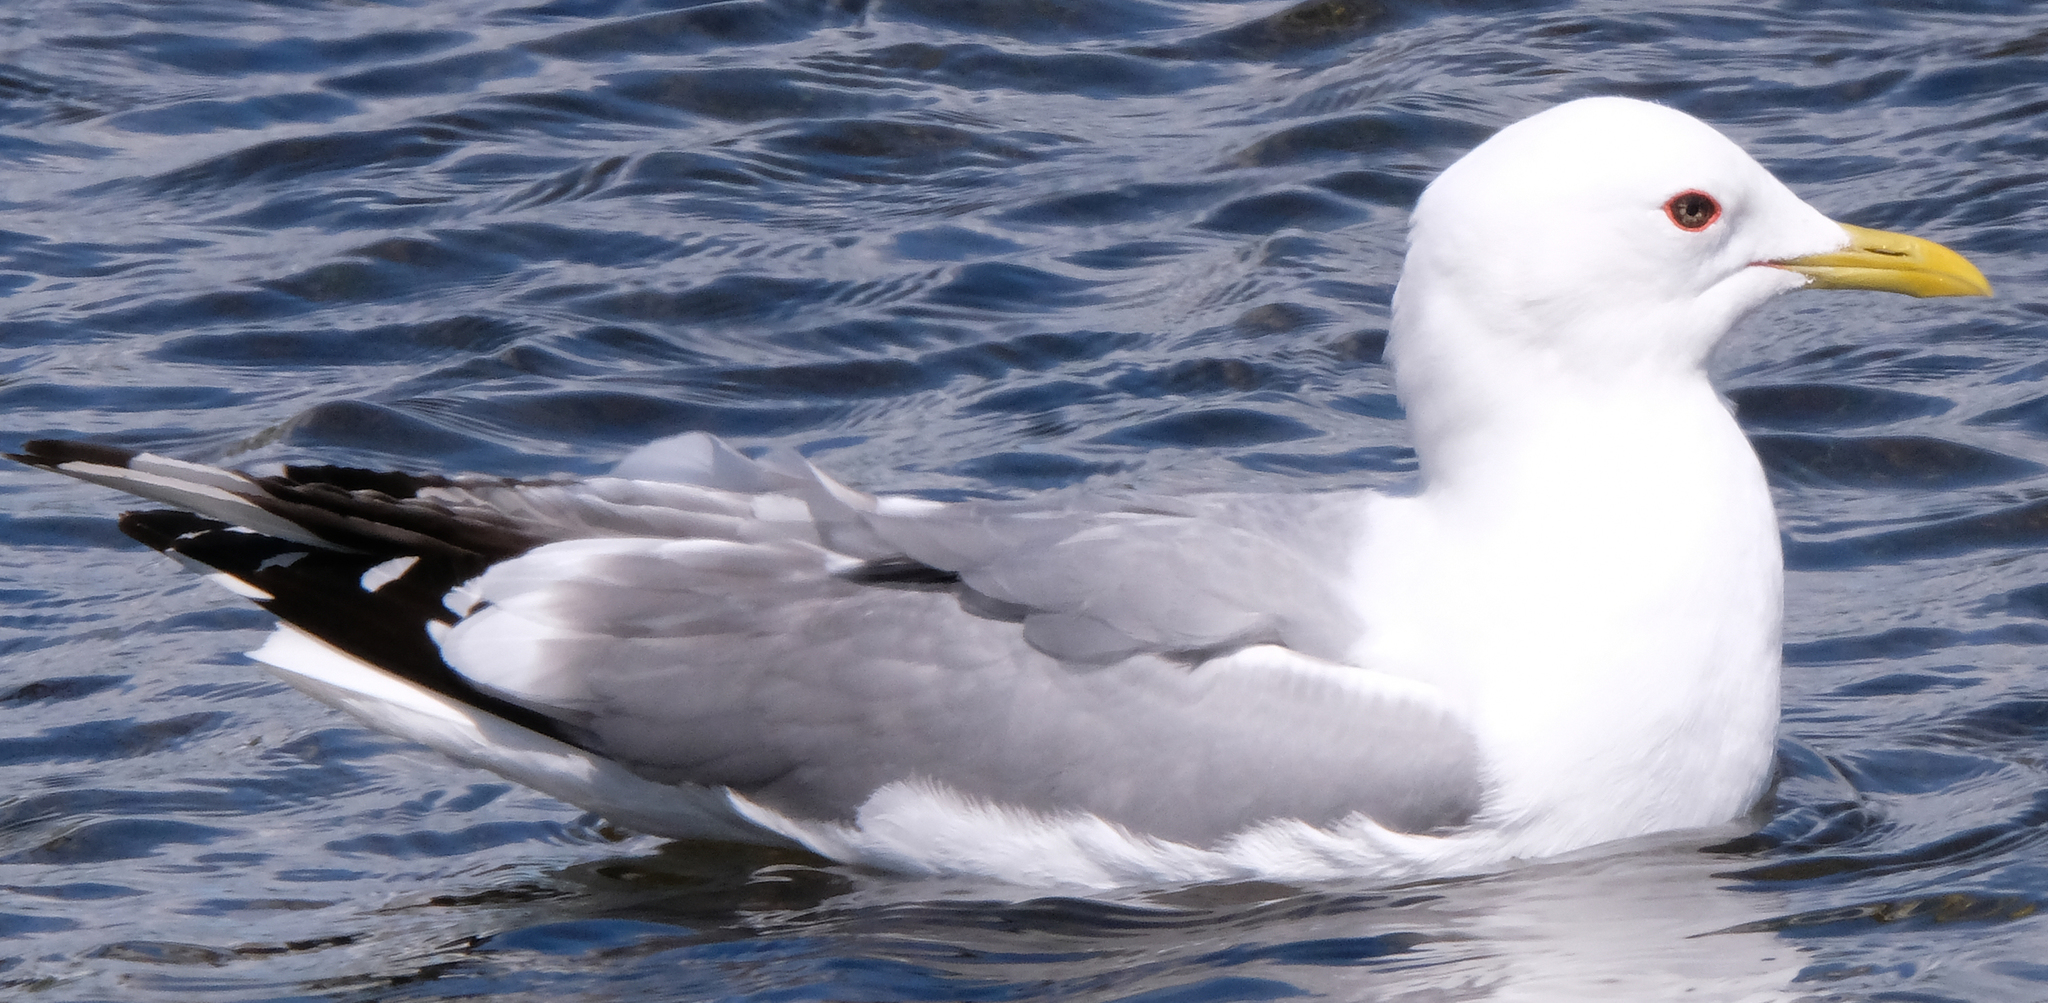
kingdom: Animalia
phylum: Chordata
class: Aves
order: Charadriiformes
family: Laridae
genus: Larus
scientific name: Larus brachyrhynchus
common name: Short-billed gull
